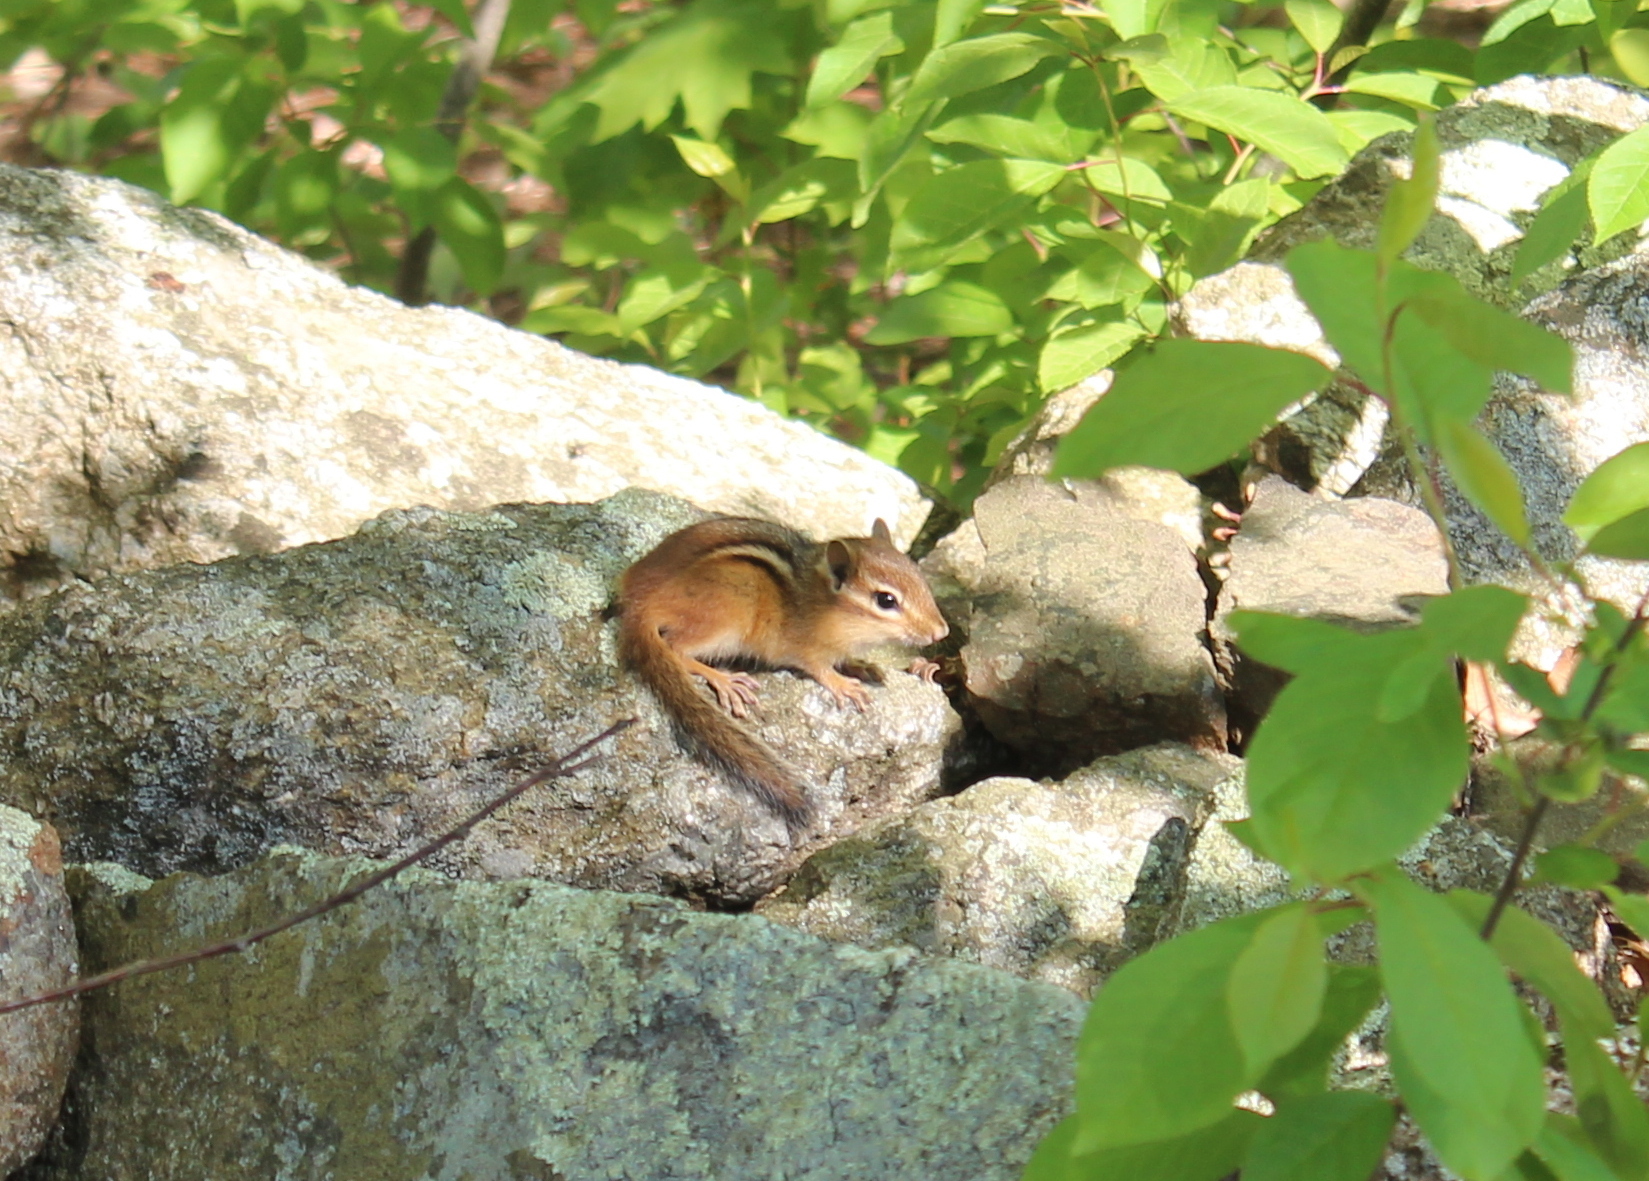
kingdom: Animalia
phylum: Chordata
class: Mammalia
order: Rodentia
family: Sciuridae
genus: Tamias
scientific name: Tamias striatus
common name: Eastern chipmunk
